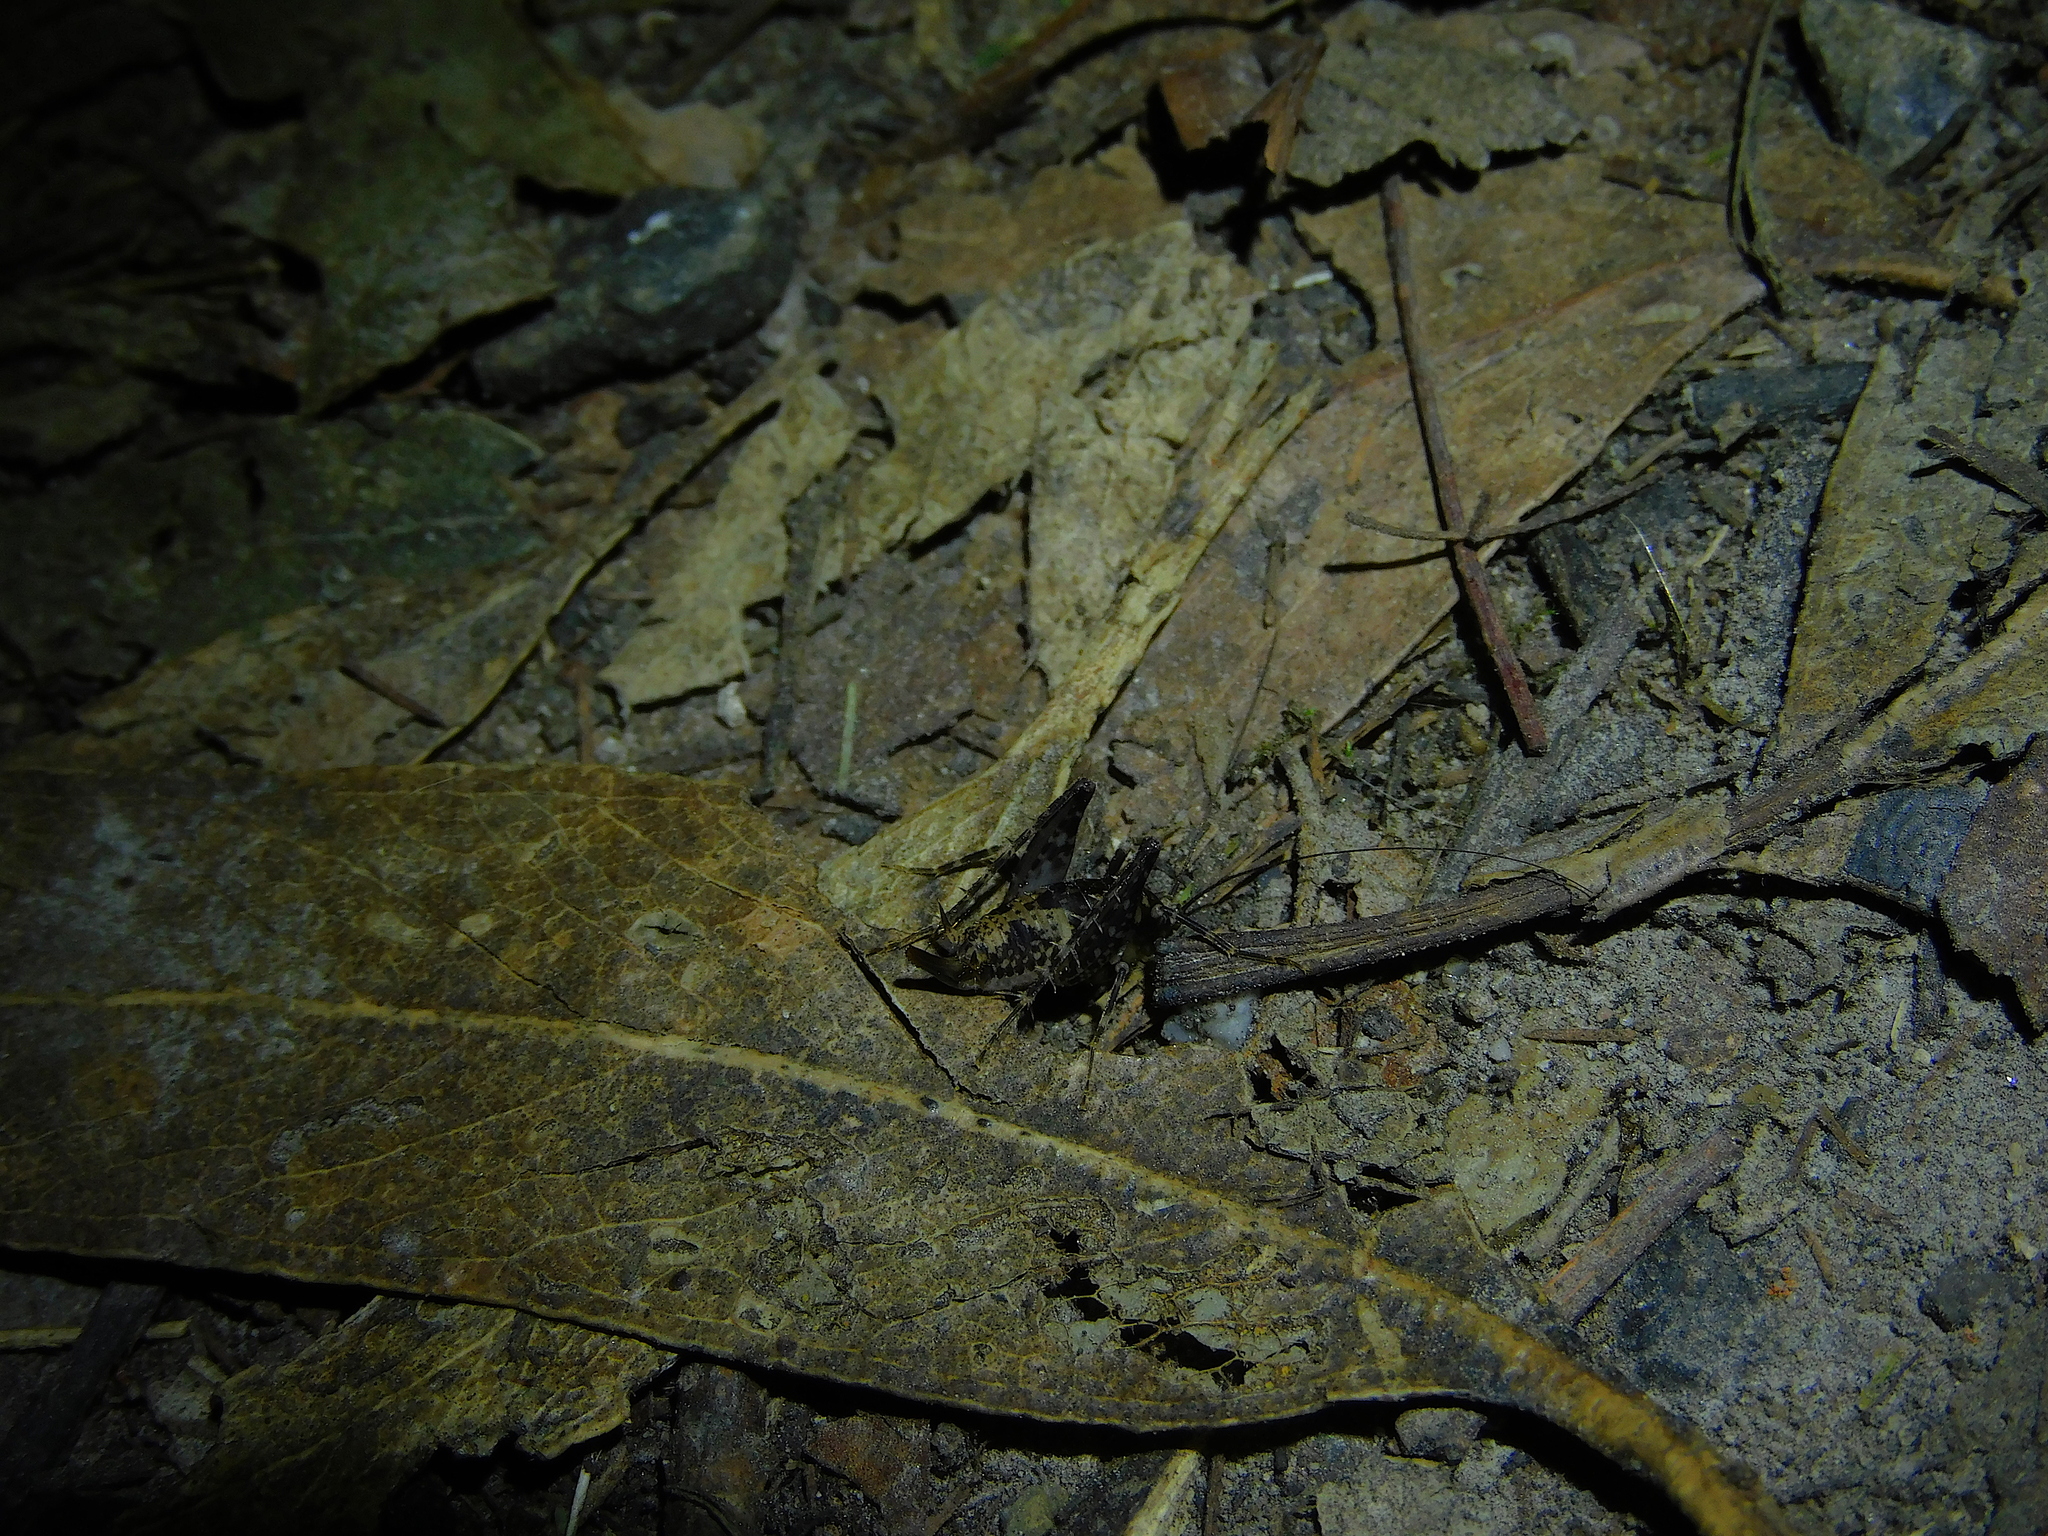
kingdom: Animalia
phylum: Arthropoda
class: Insecta
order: Orthoptera
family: Rhaphidophoridae
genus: Parvotettix
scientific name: Parvotettix domesticus
